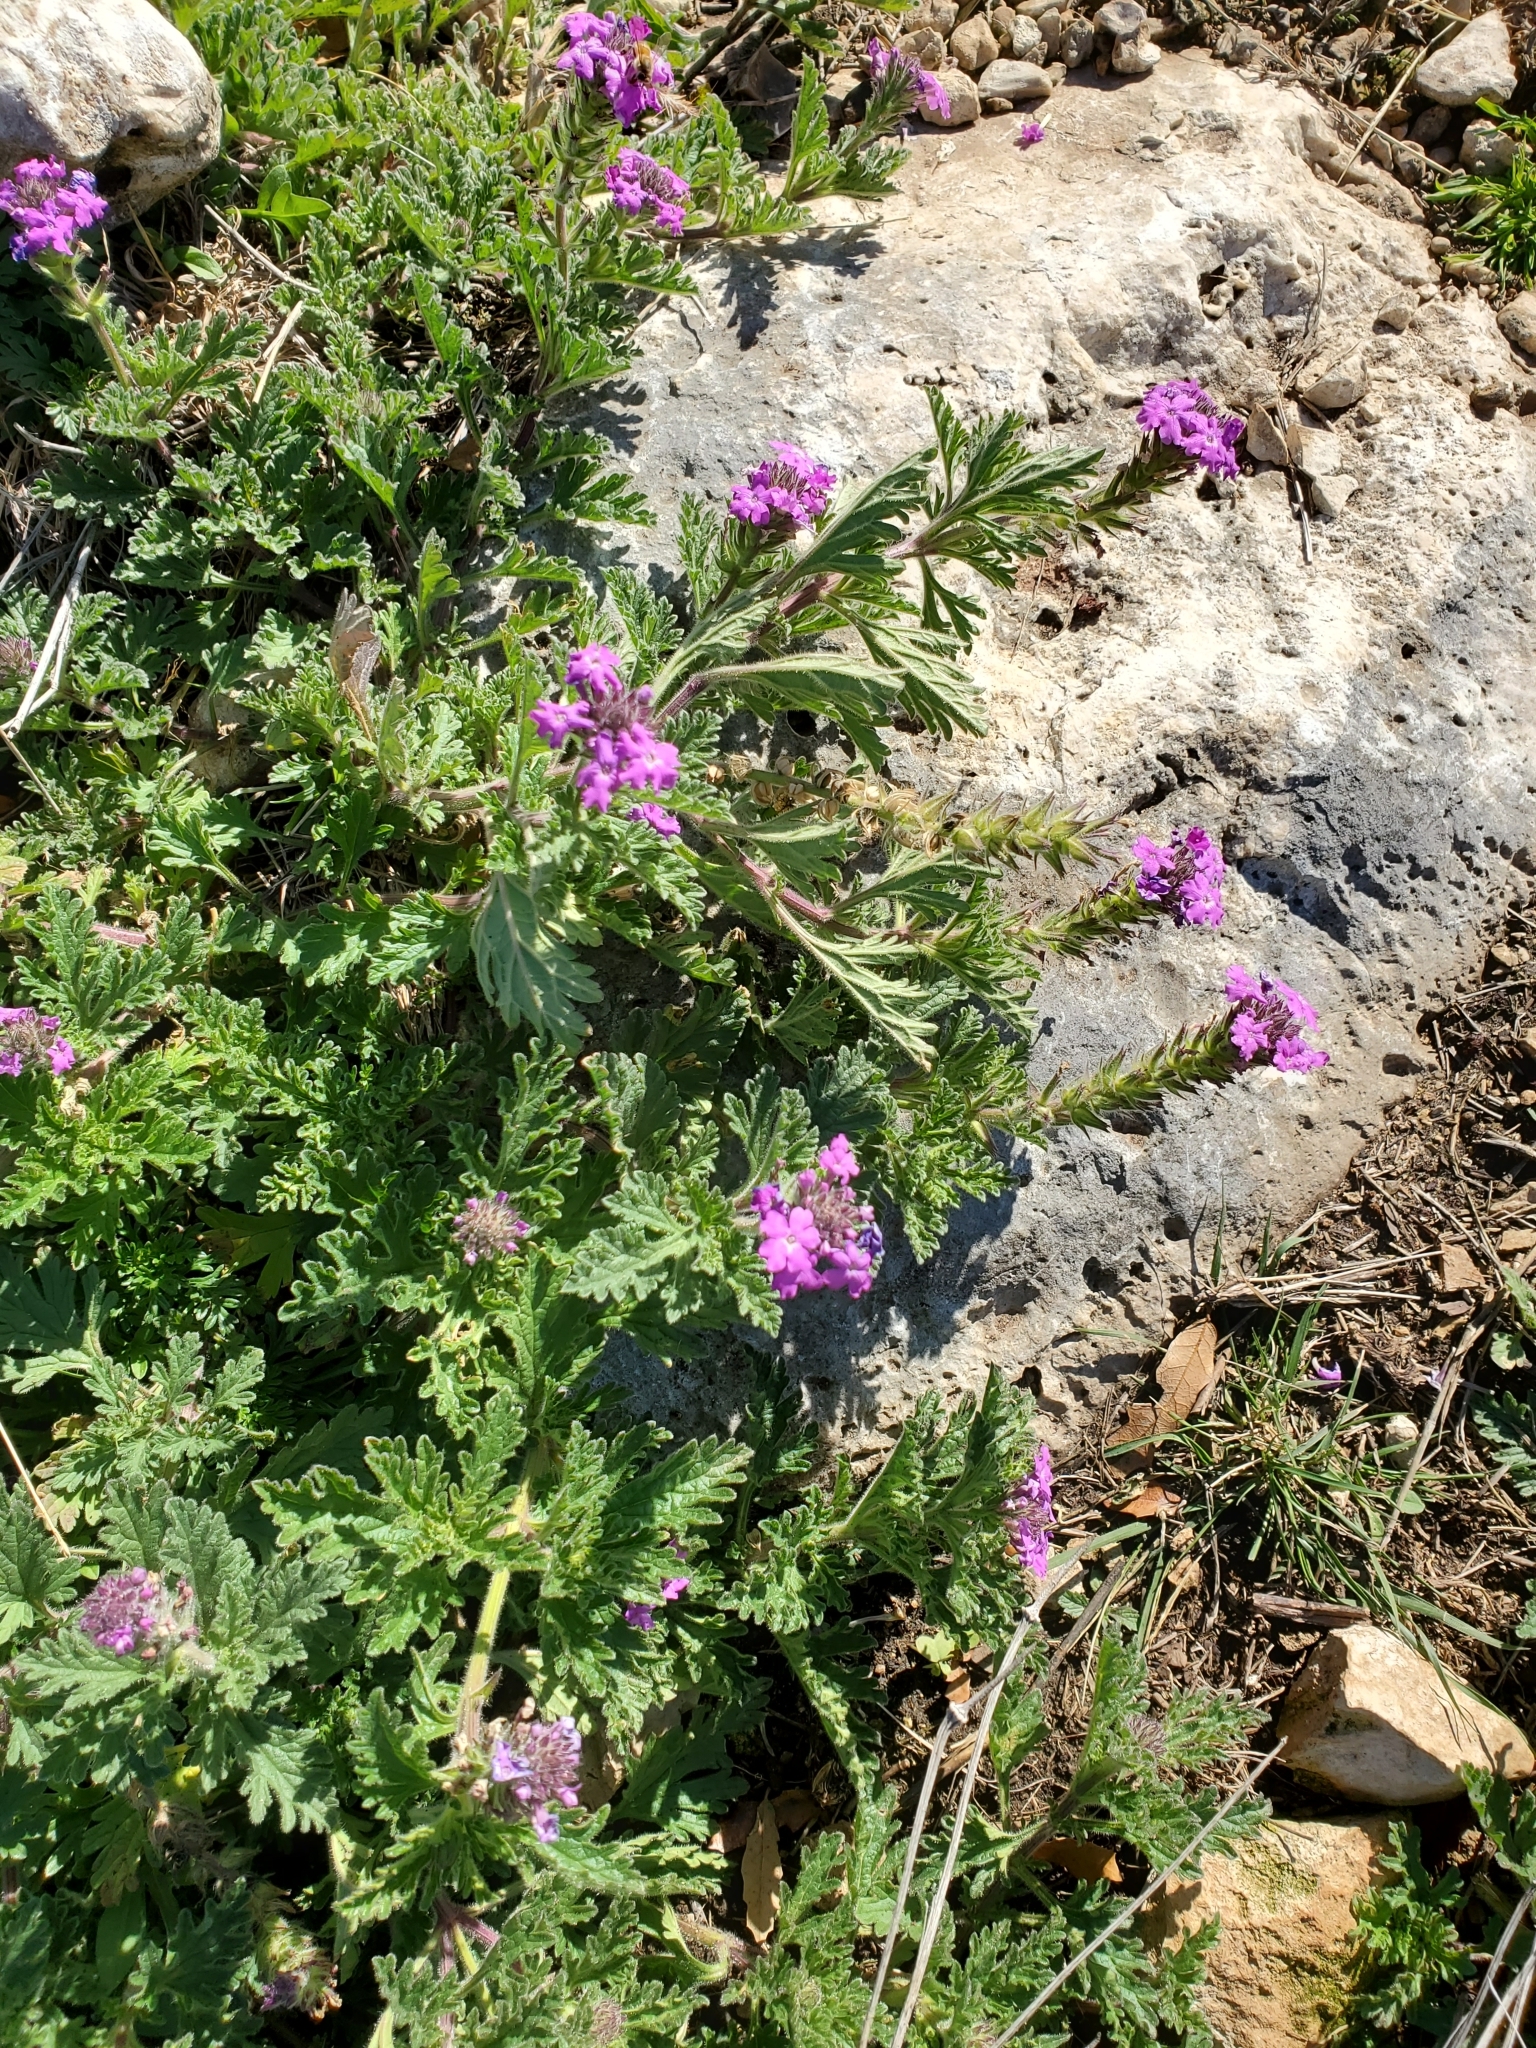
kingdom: Plantae
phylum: Tracheophyta
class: Magnoliopsida
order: Lamiales
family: Verbenaceae
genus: Verbena
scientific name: Verbena tumidula
